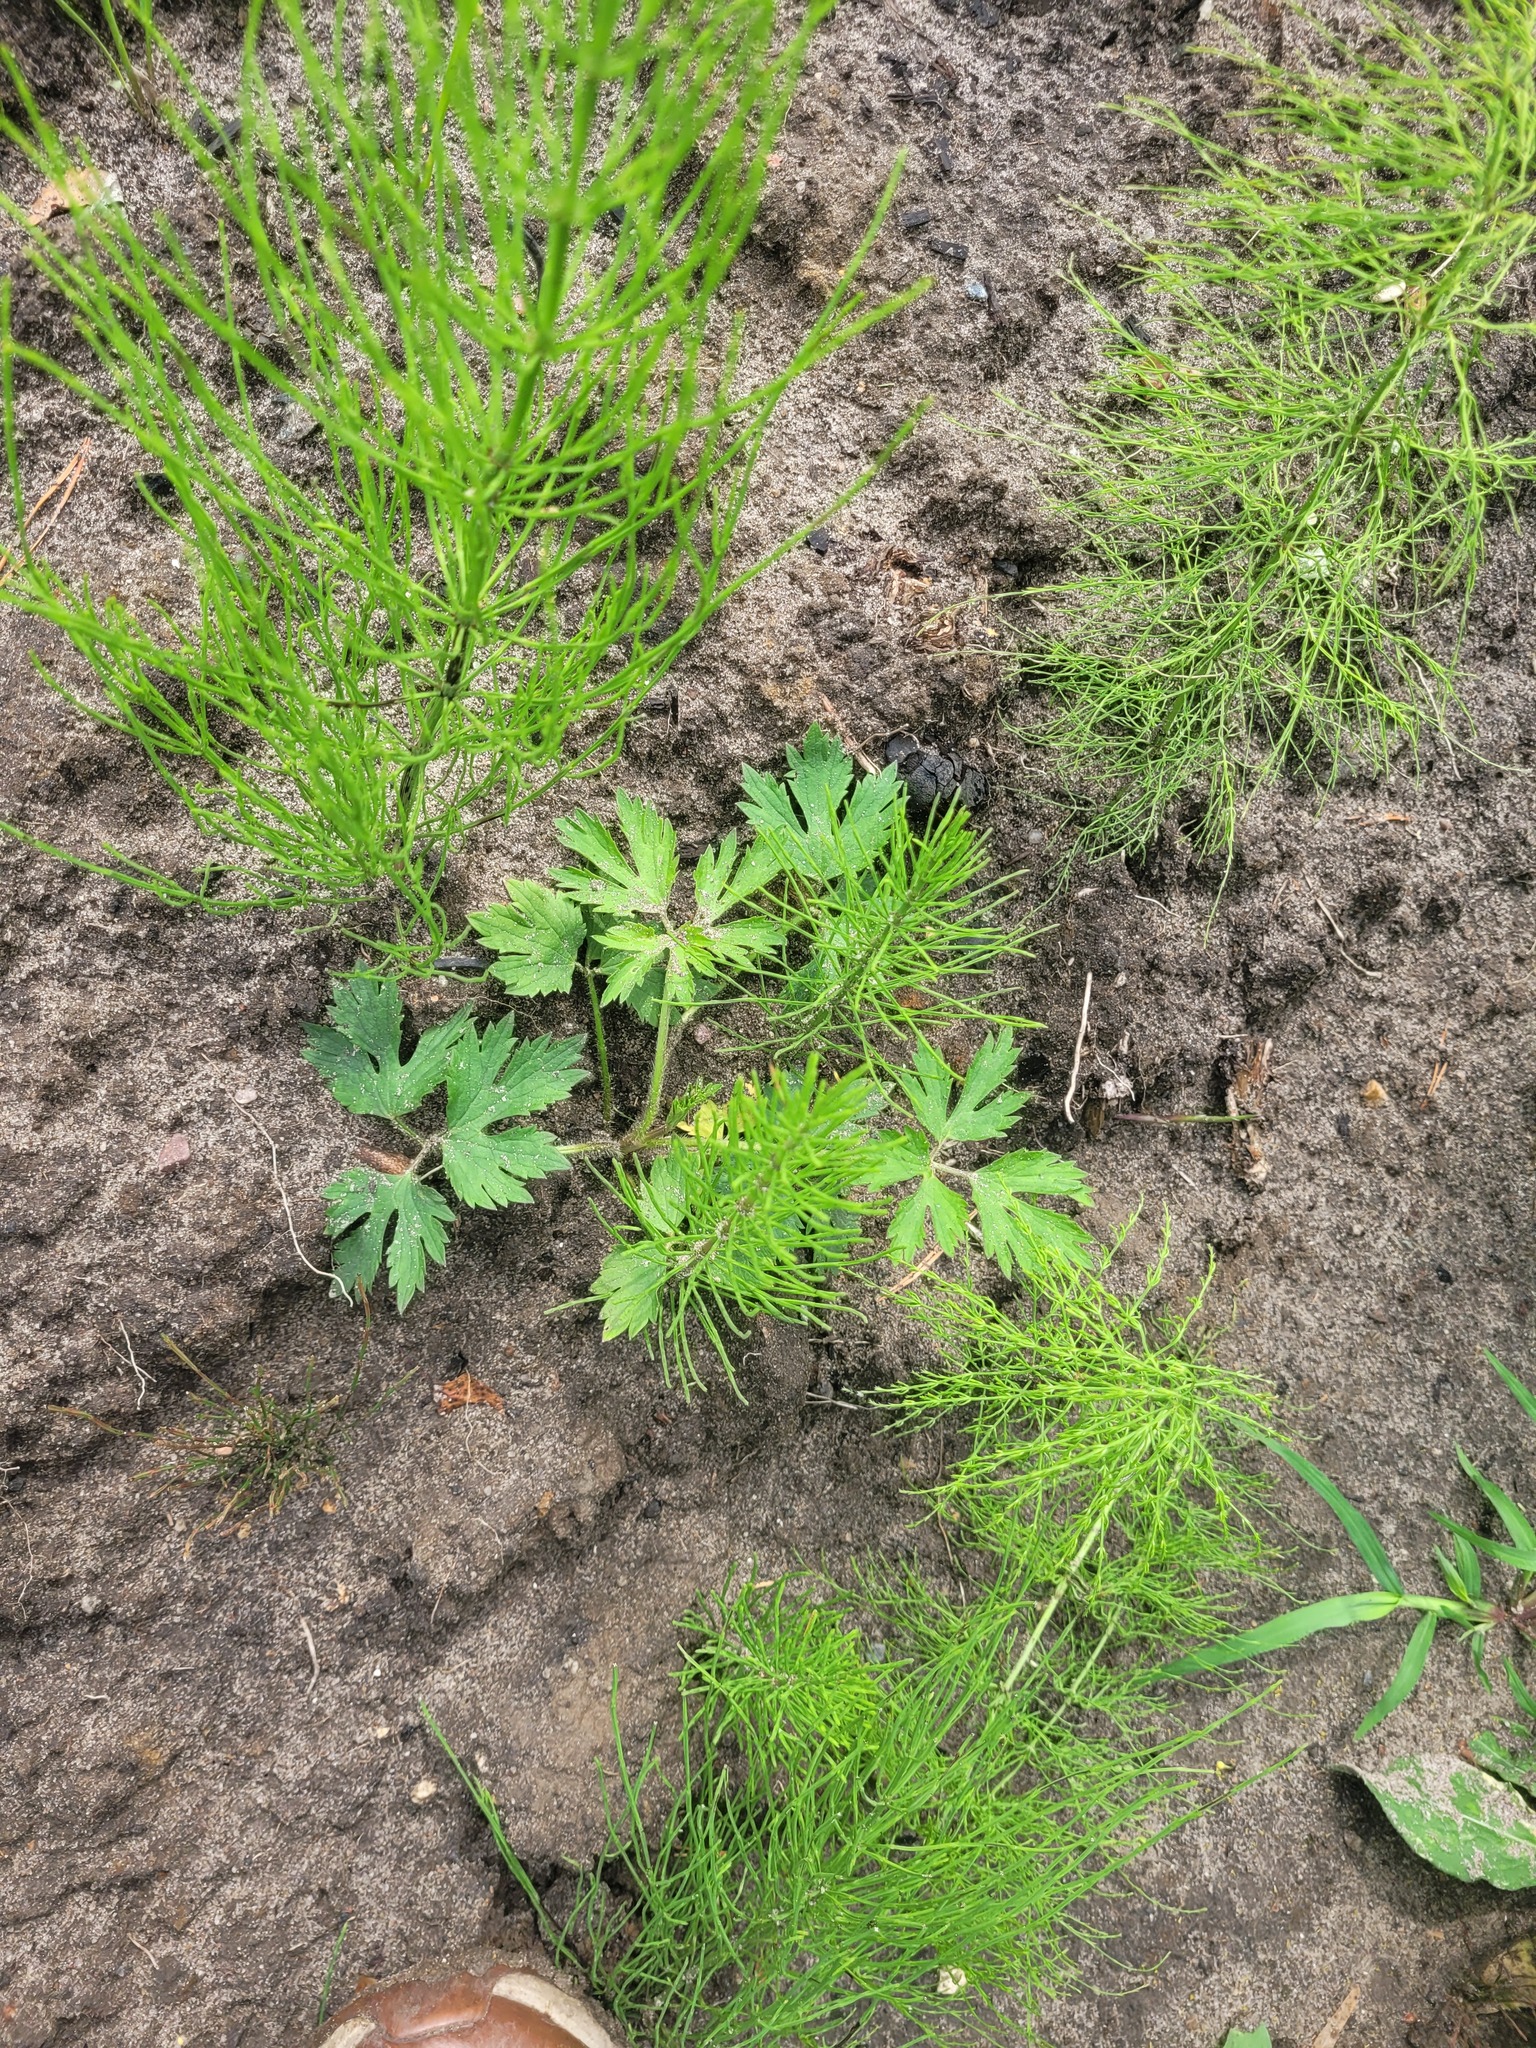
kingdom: Plantae
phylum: Tracheophyta
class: Magnoliopsida
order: Ranunculales
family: Ranunculaceae
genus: Ranunculus
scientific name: Ranunculus repens
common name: Creeping buttercup
